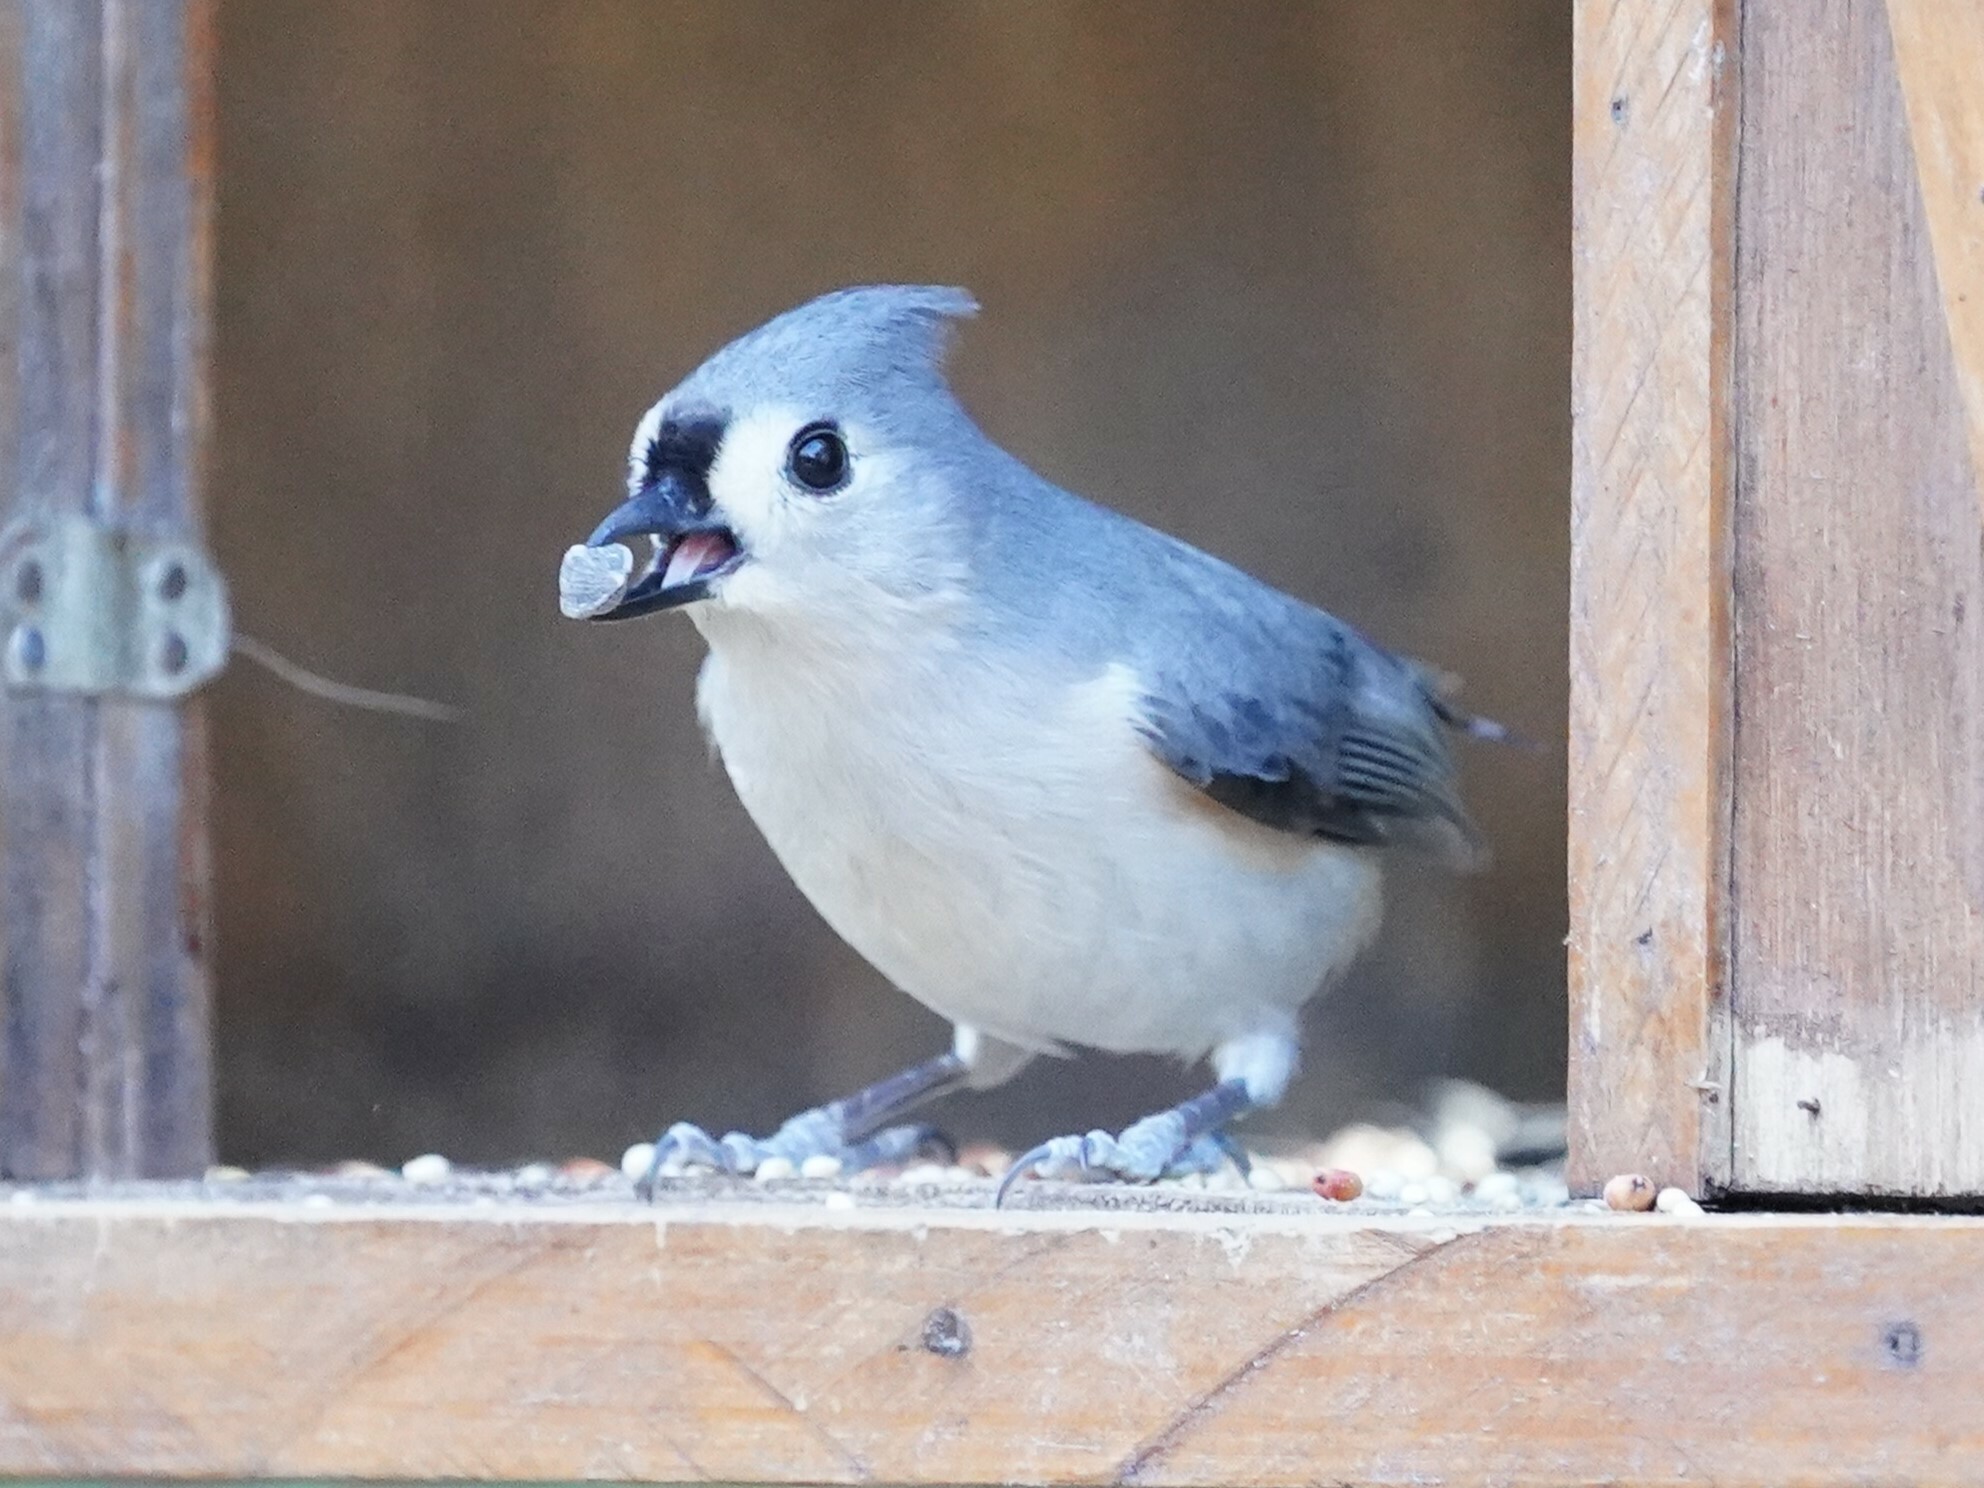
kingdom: Animalia
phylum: Chordata
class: Aves
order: Passeriformes
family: Paridae
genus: Baeolophus
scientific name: Baeolophus bicolor
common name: Tufted titmouse
